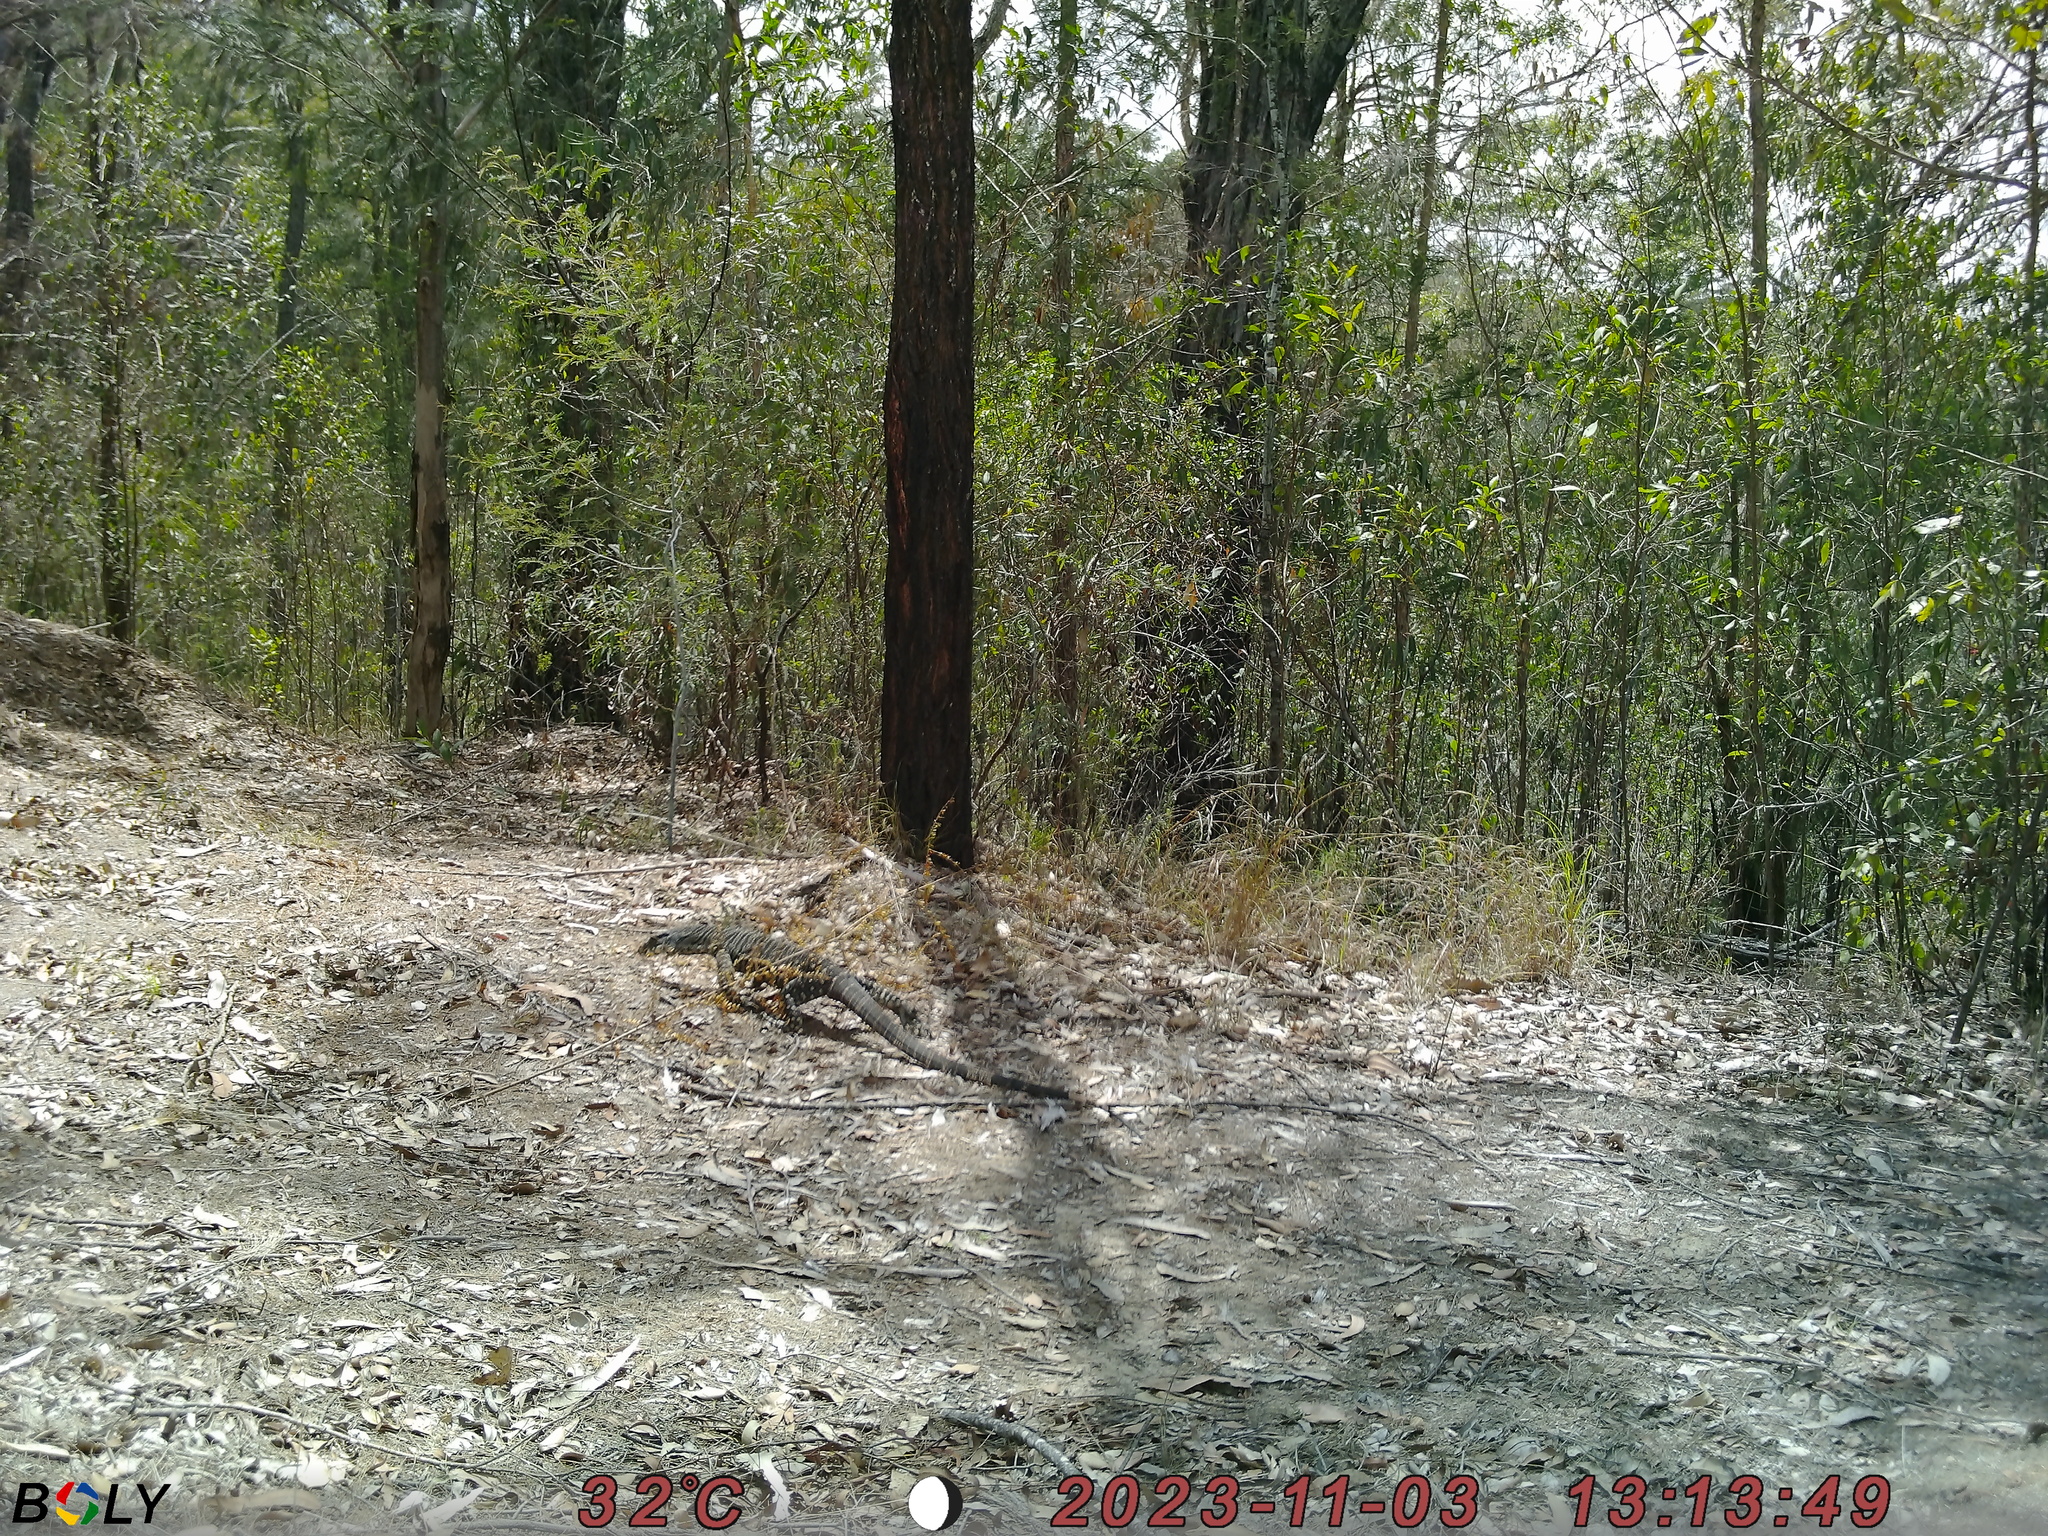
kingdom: Animalia
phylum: Chordata
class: Squamata
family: Varanidae
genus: Varanus
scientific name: Varanus varius
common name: Lace monitor
